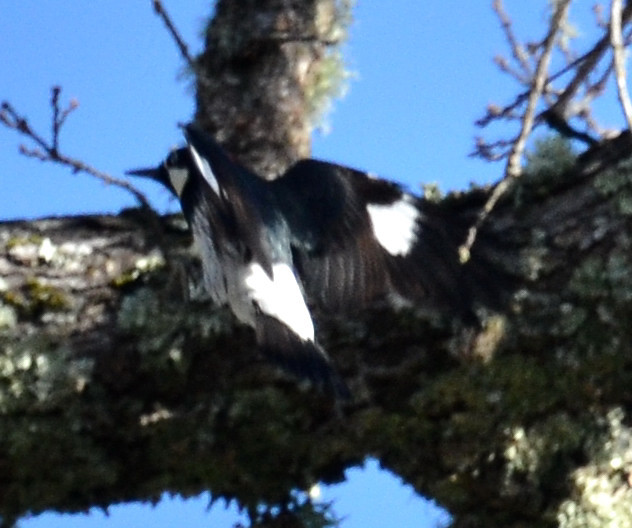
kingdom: Animalia
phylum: Chordata
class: Aves
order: Piciformes
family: Picidae
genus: Melanerpes
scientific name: Melanerpes formicivorus
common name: Acorn woodpecker
